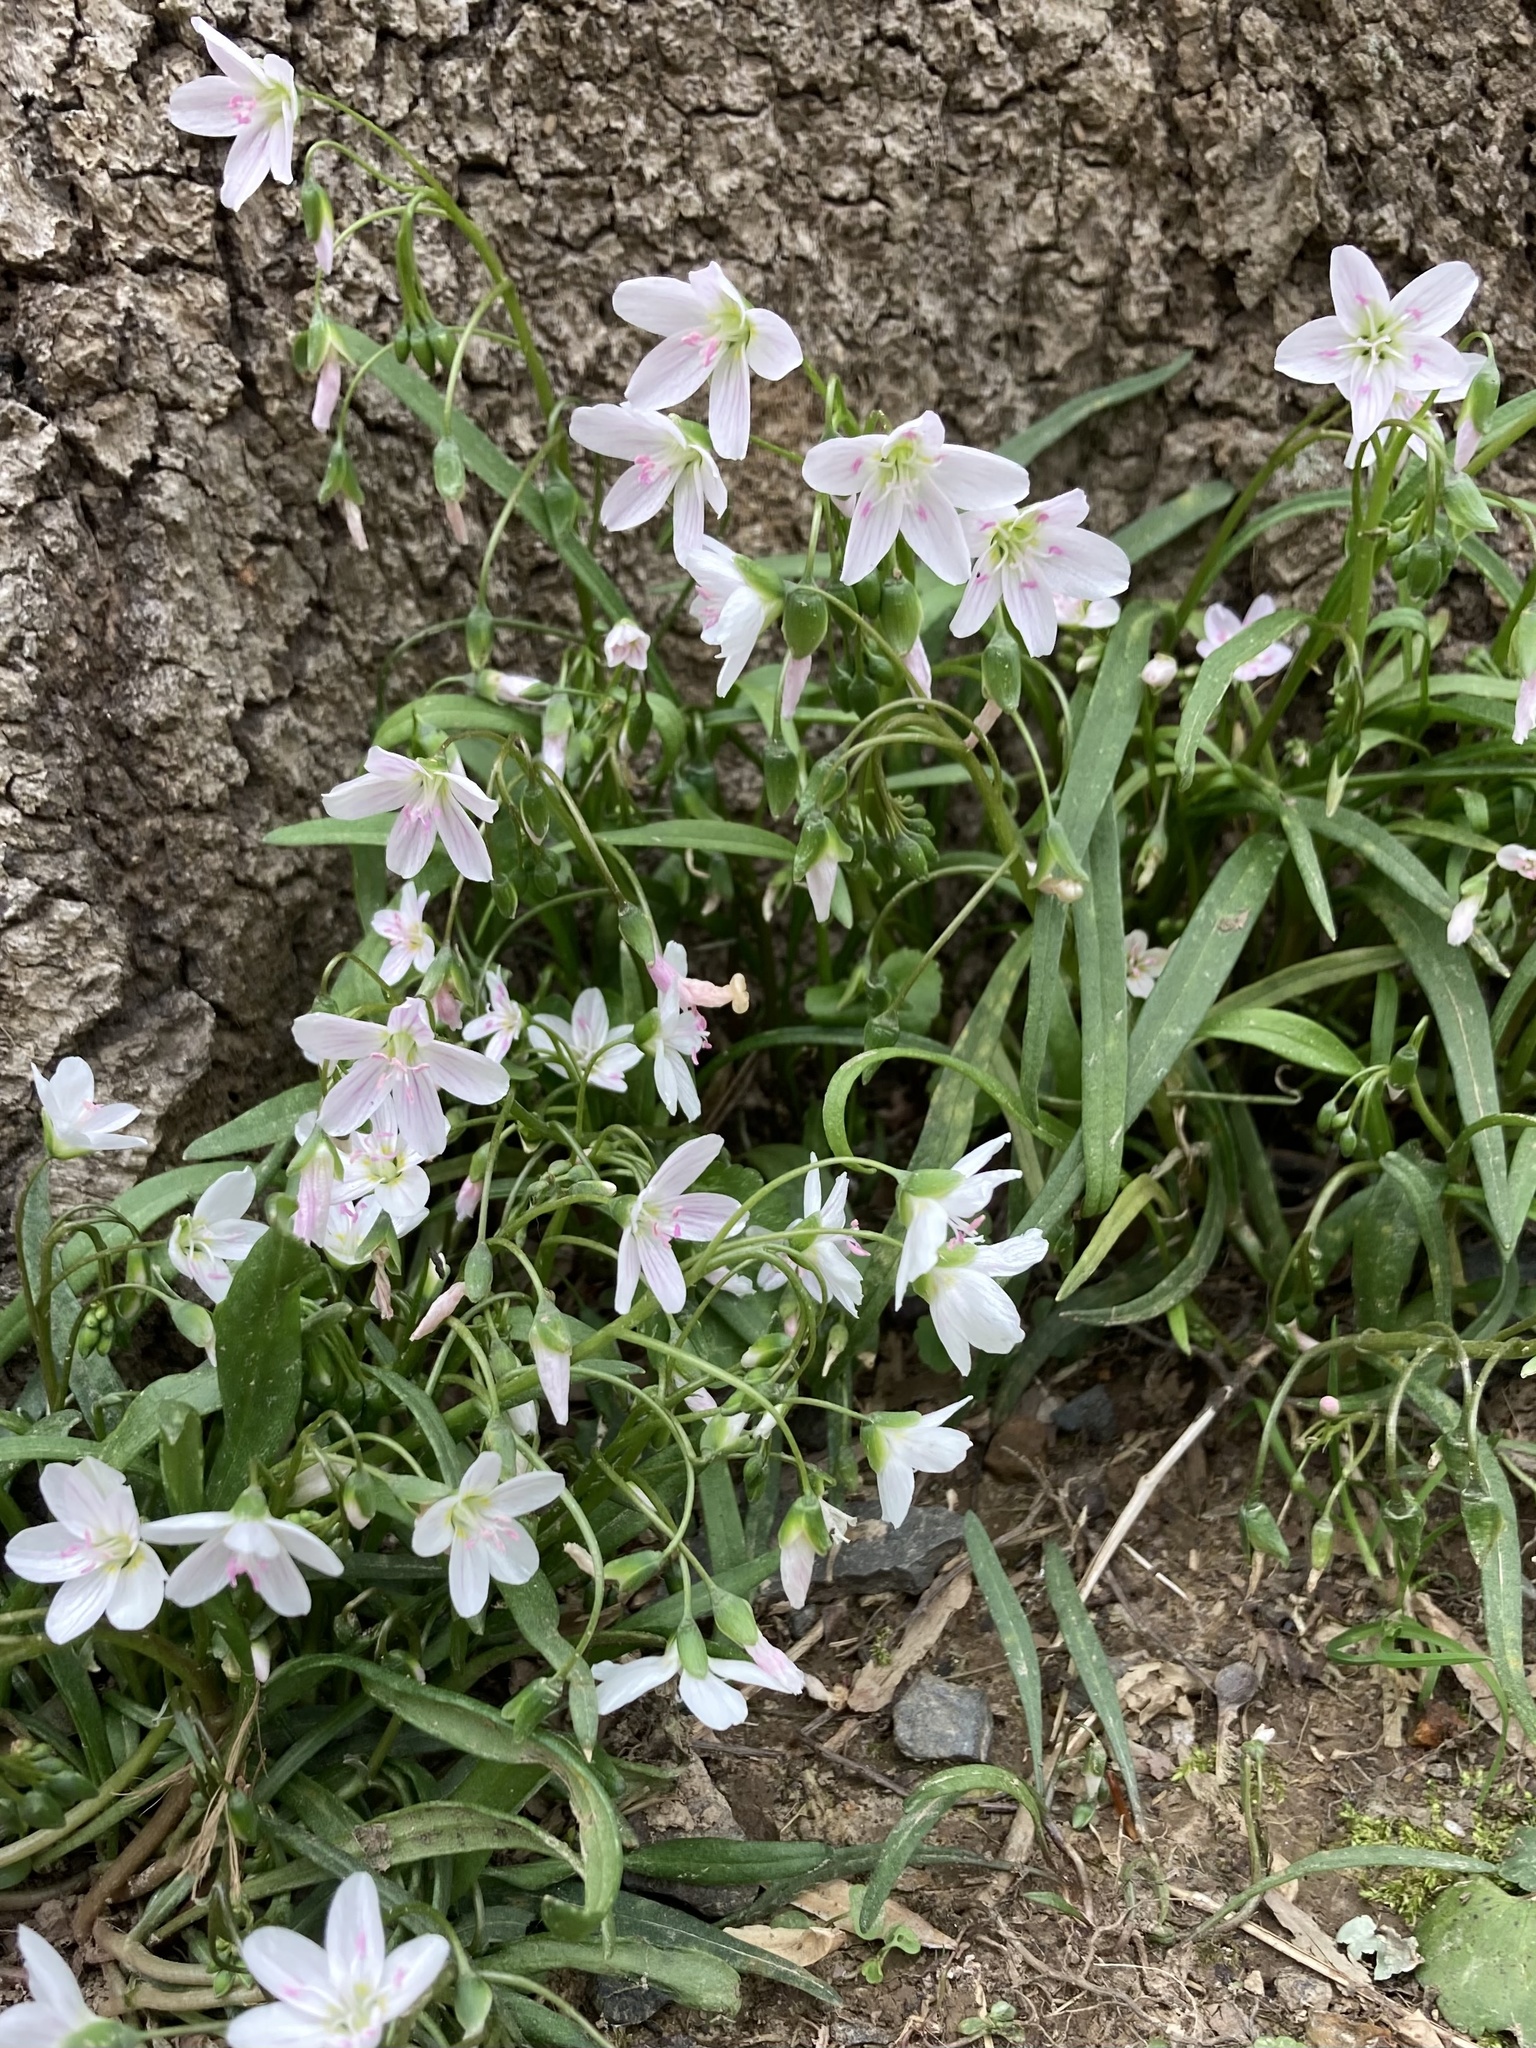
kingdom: Plantae
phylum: Tracheophyta
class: Magnoliopsida
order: Caryophyllales
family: Montiaceae
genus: Claytonia
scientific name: Claytonia virginica
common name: Virginia springbeauty
